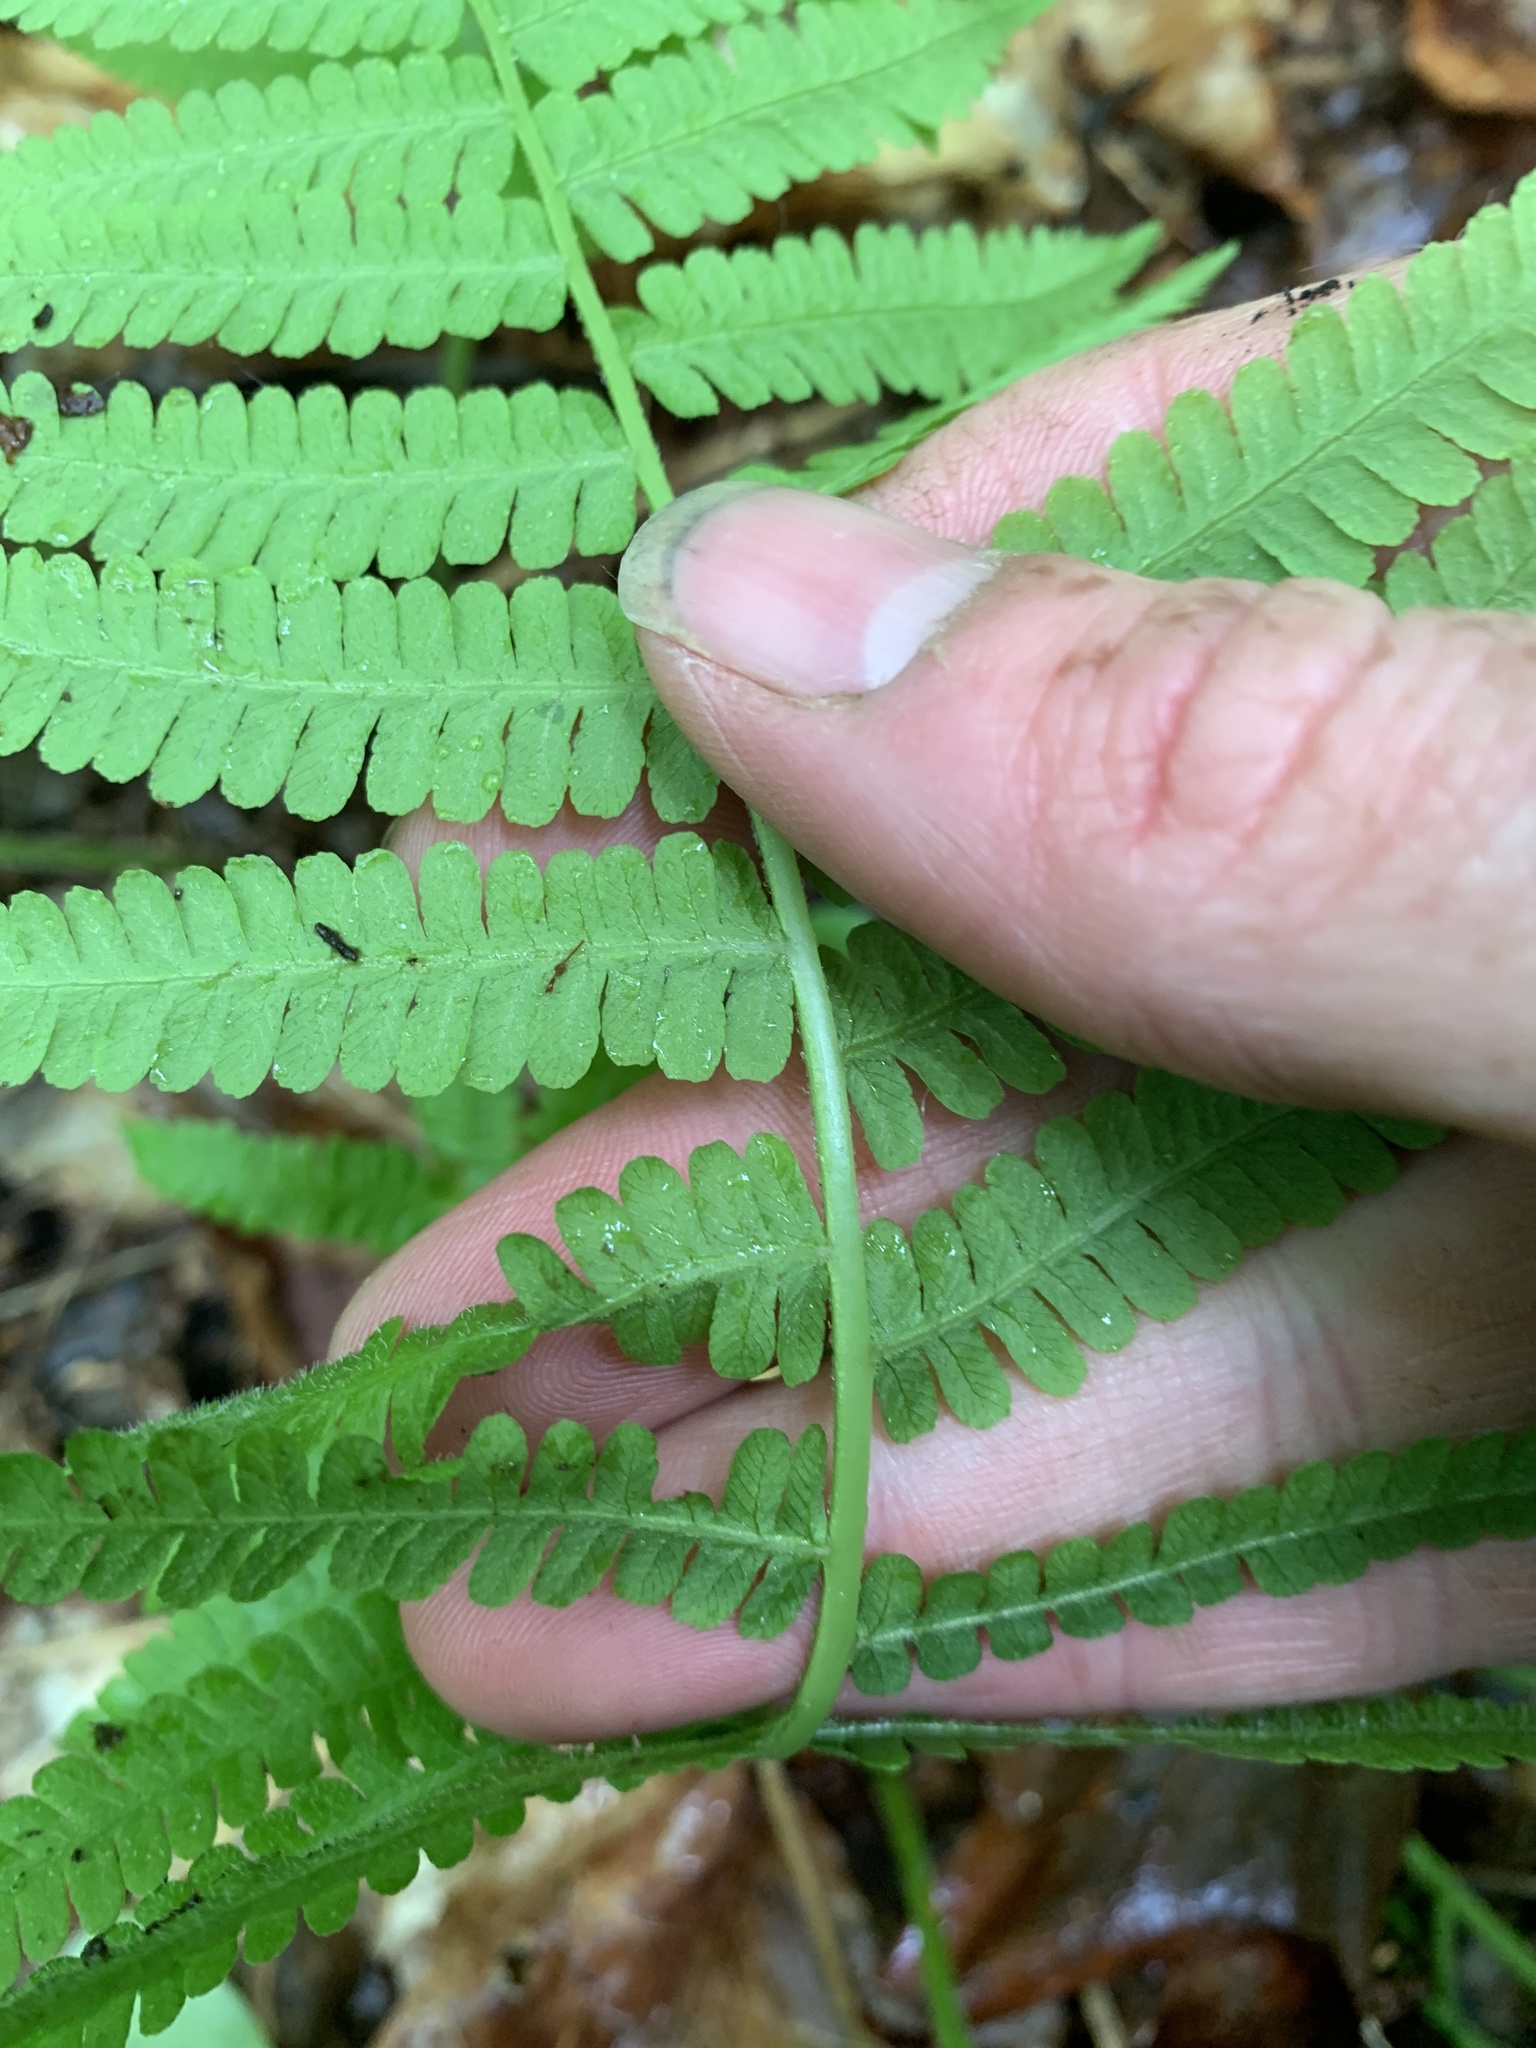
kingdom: Plantae
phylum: Tracheophyta
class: Polypodiopsida
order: Polypodiales
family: Athyriaceae
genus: Deparia
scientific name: Deparia acrostichoides
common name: Silver false spleenwort
